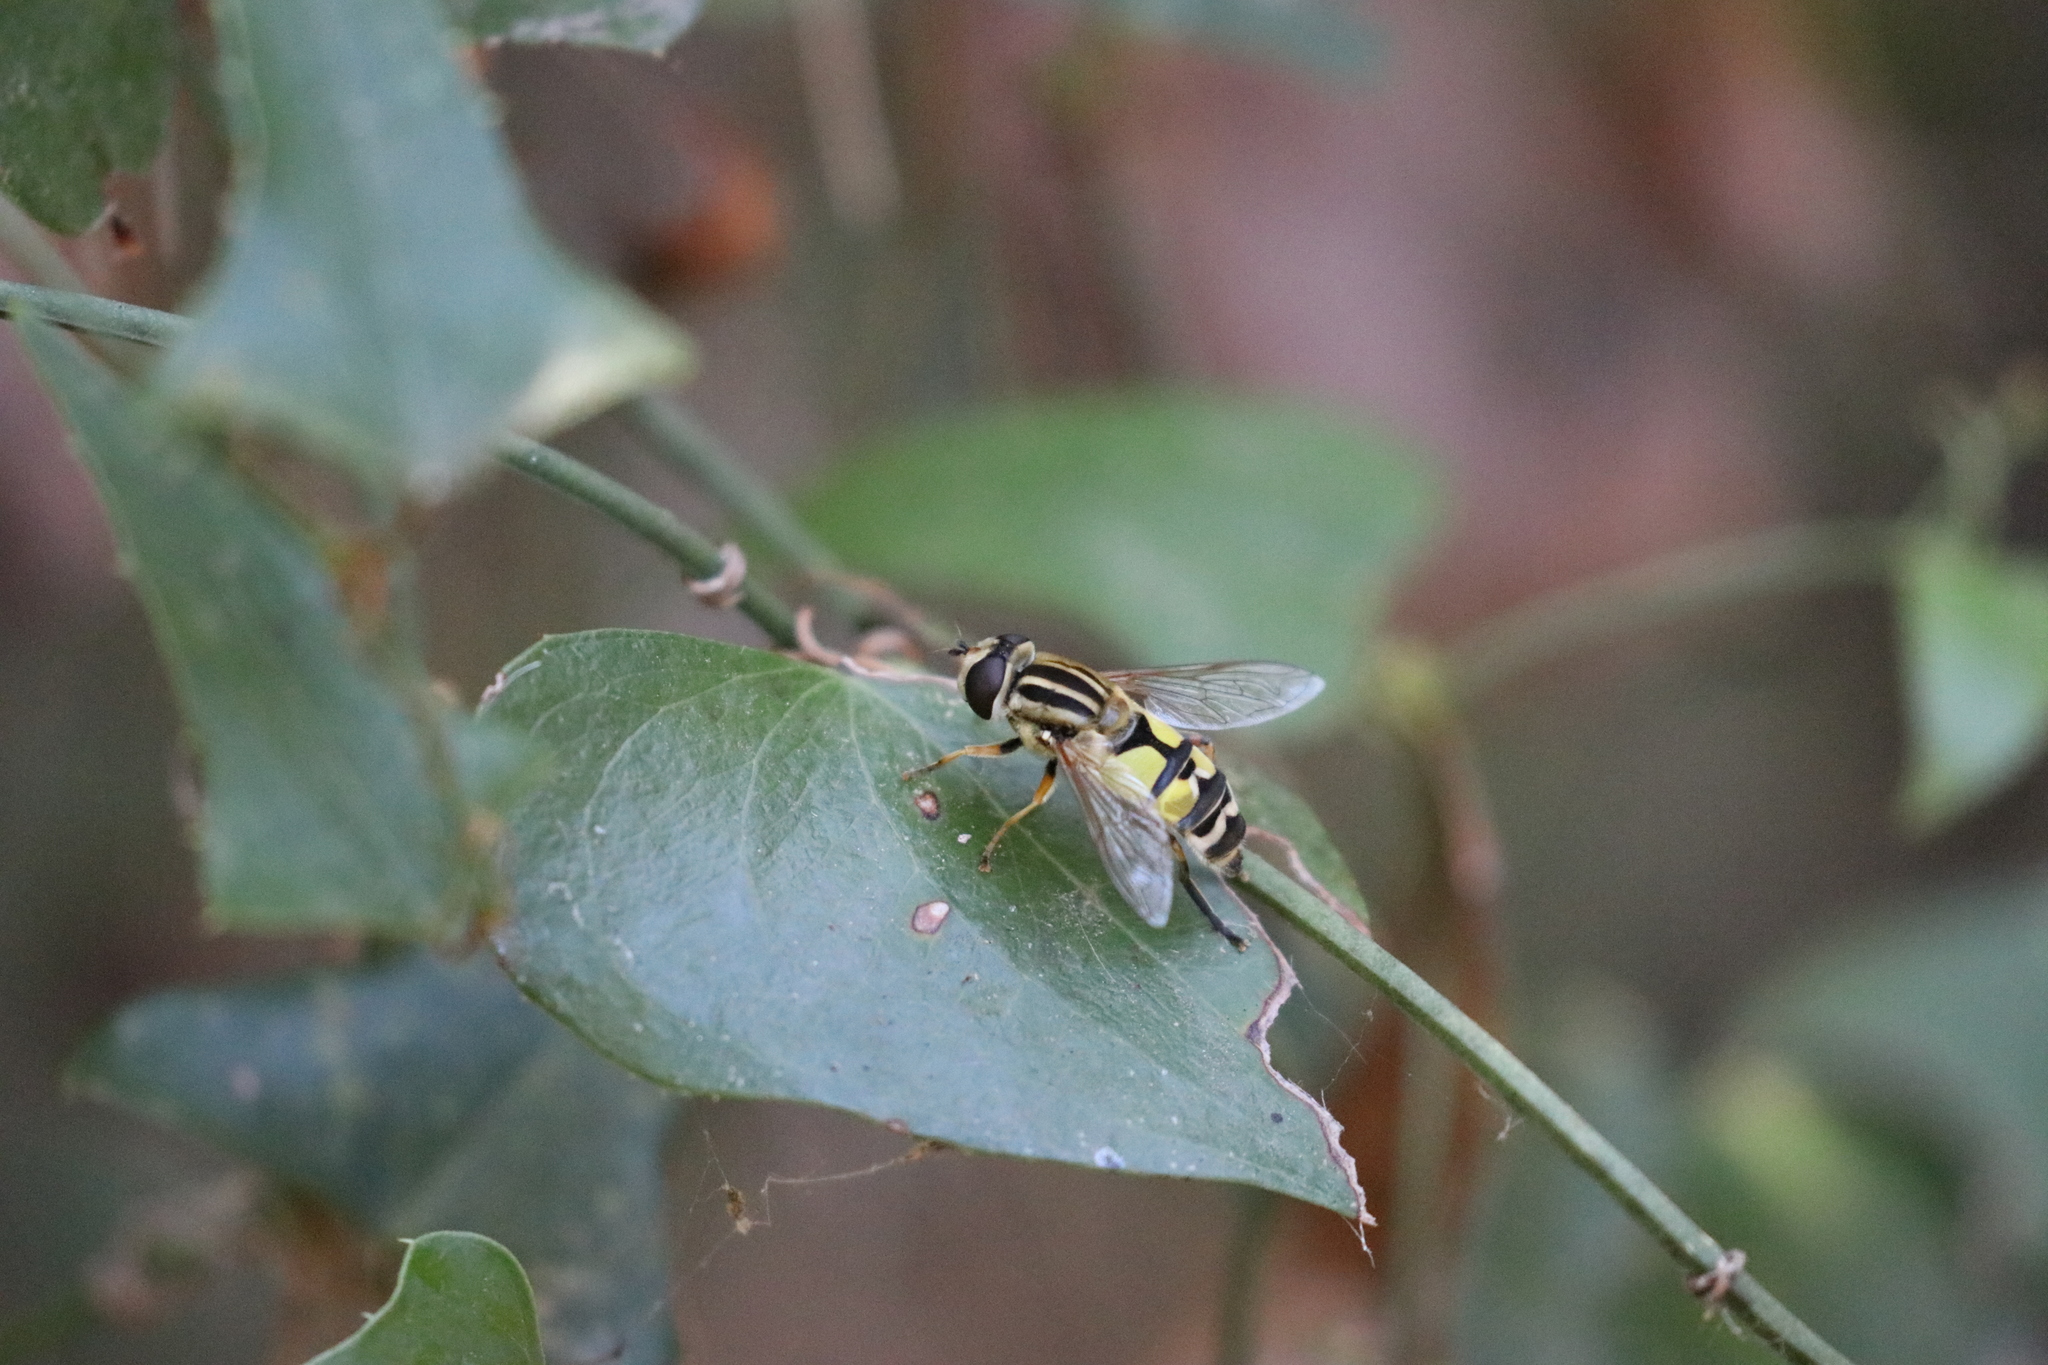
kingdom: Animalia
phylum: Arthropoda
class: Insecta
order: Diptera
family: Syrphidae
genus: Helophilus
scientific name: Helophilus trivittatus
